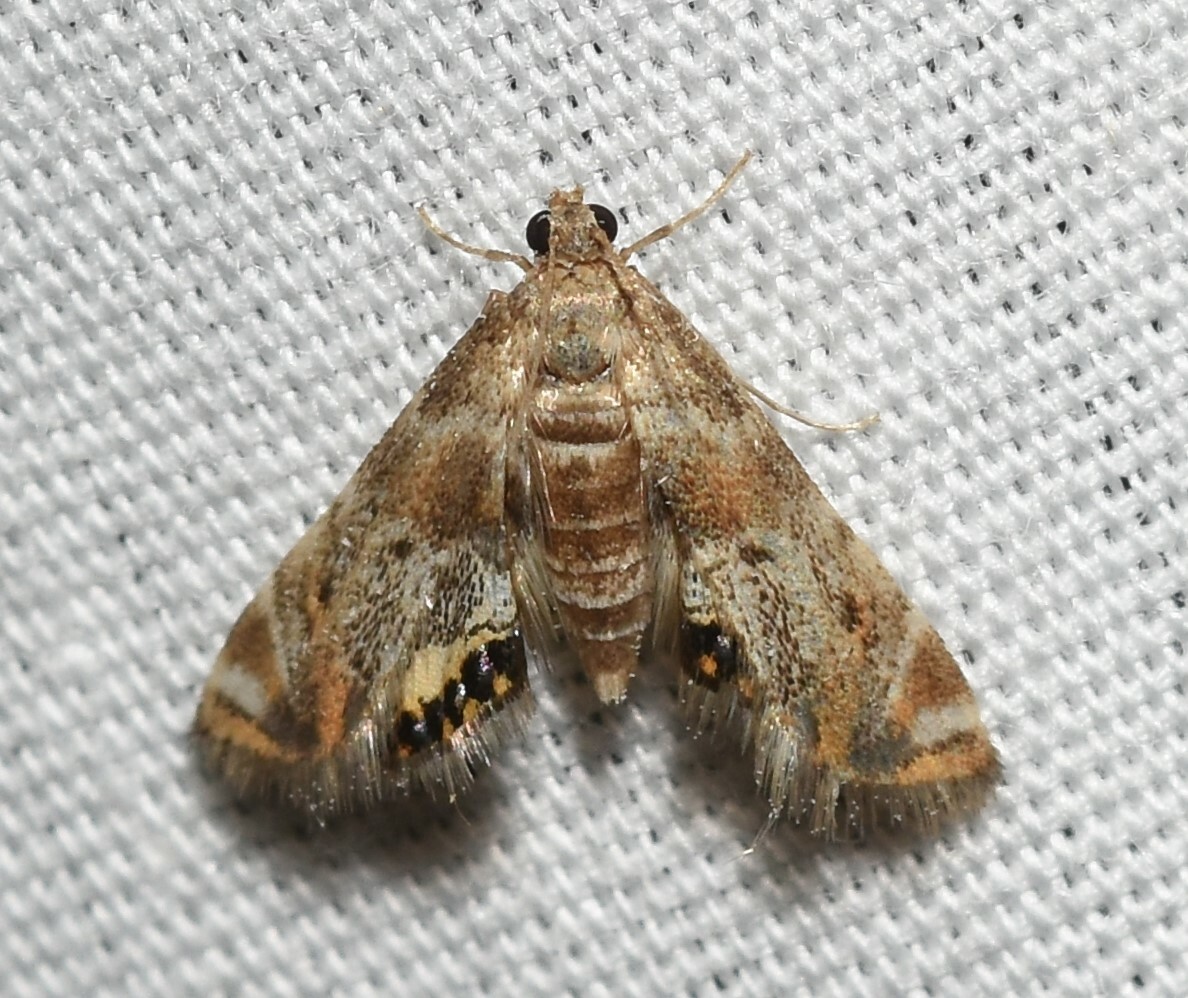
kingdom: Animalia
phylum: Arthropoda
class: Insecta
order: Lepidoptera
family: Crambidae
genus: Petrophila
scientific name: Petrophila fulicalis
